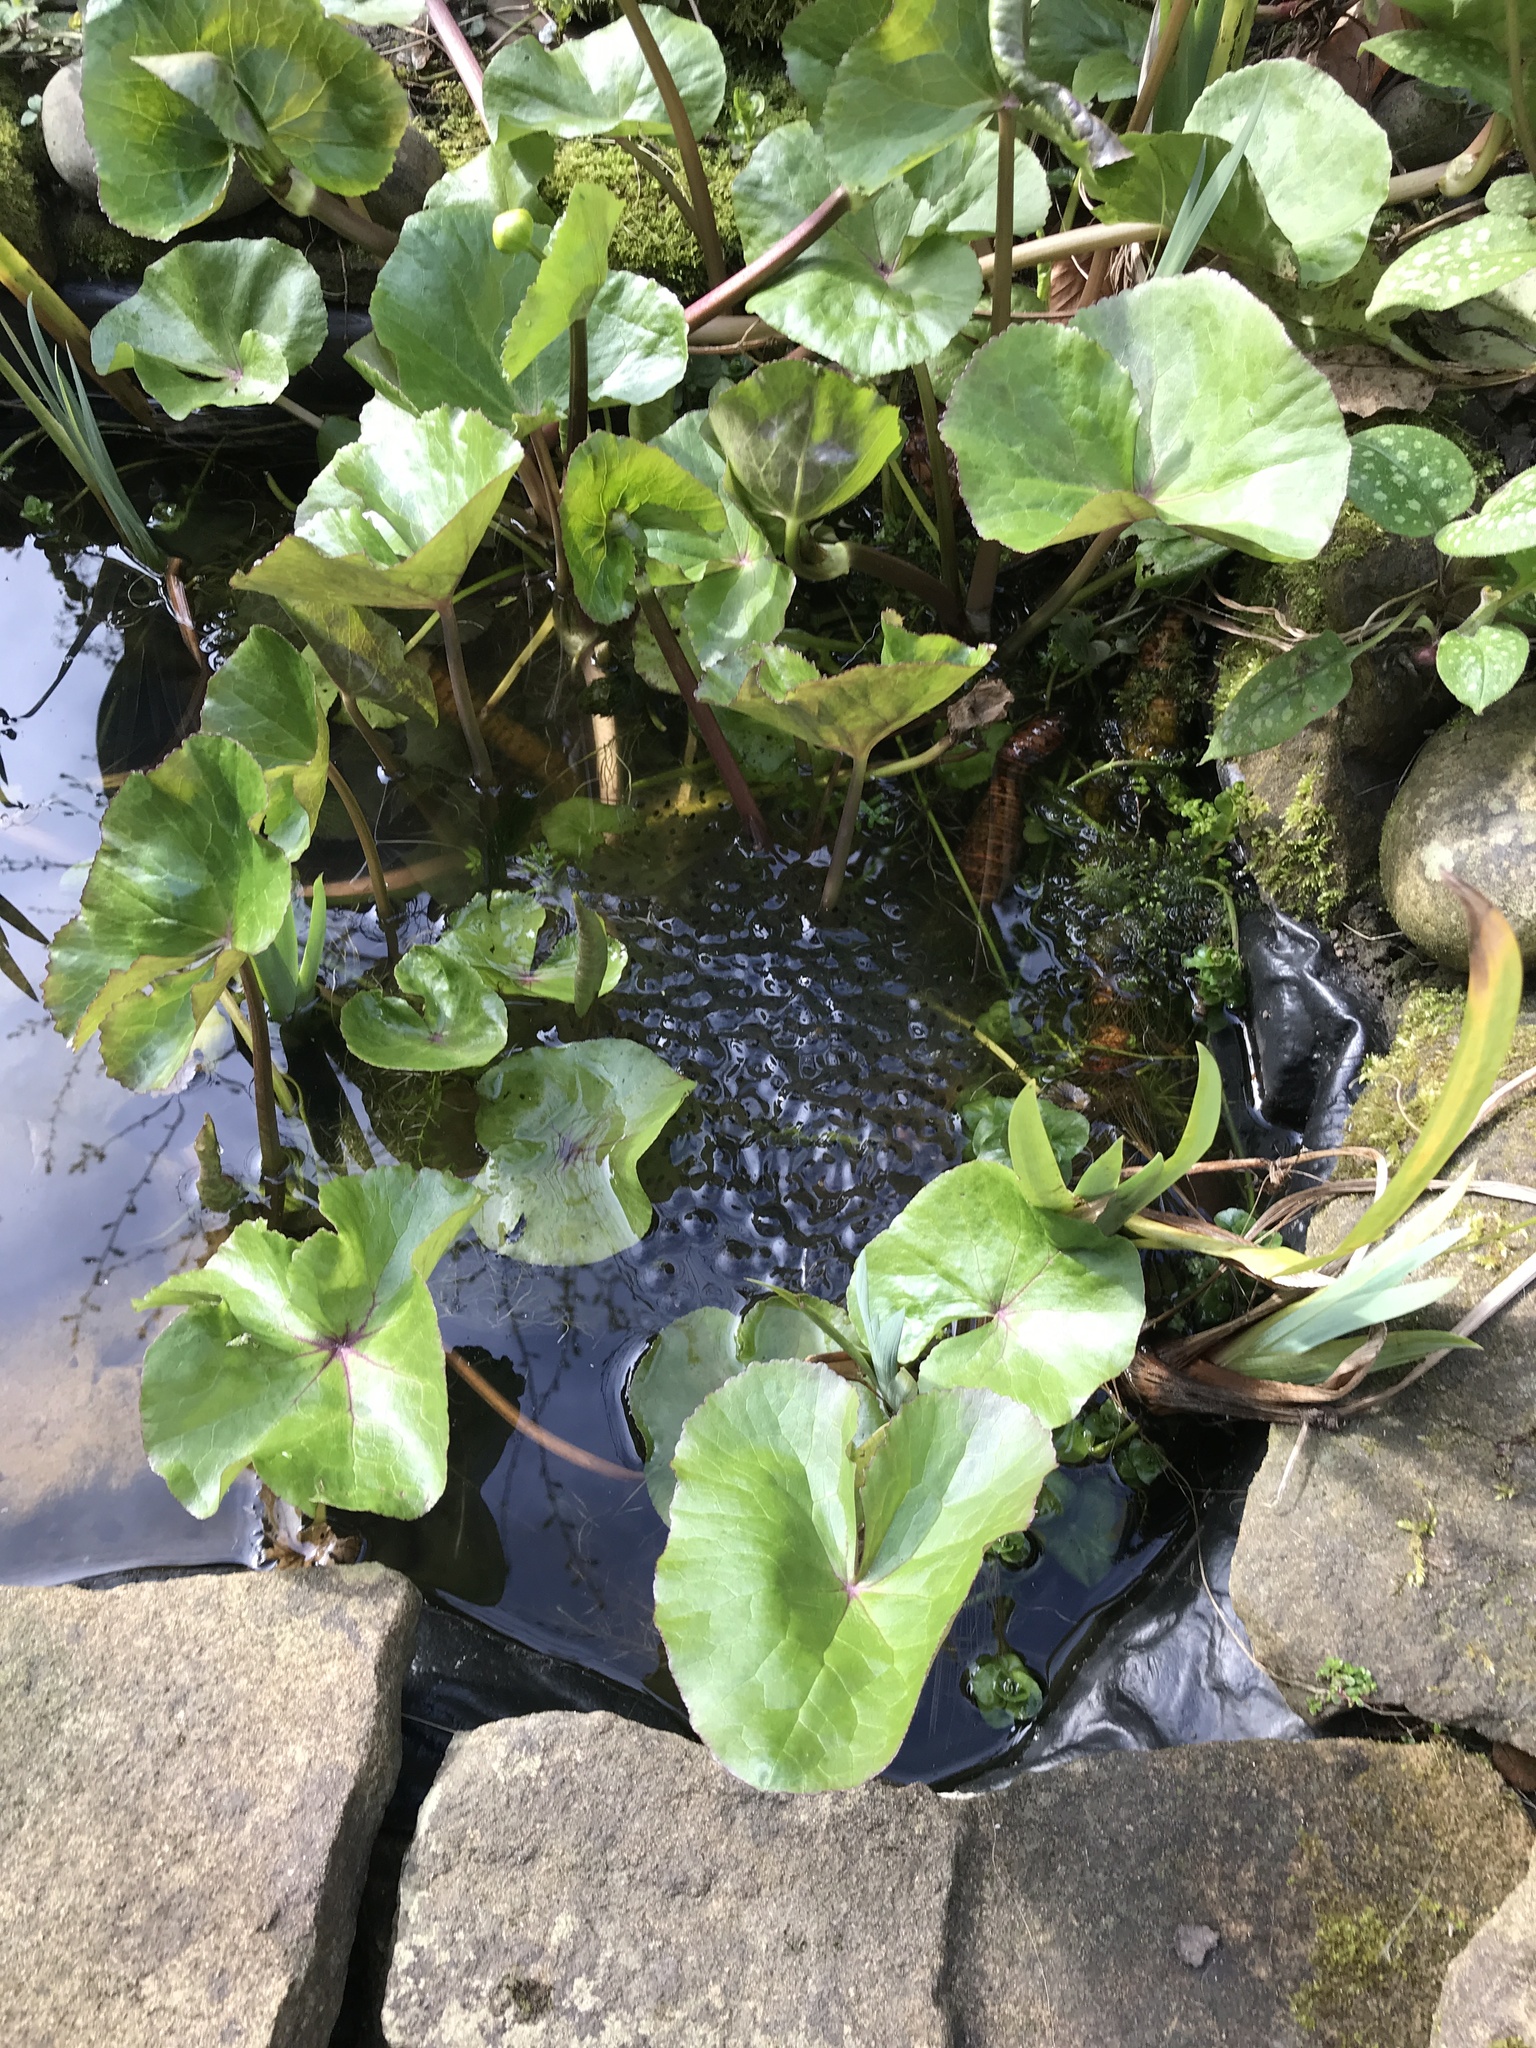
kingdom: Animalia
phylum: Chordata
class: Amphibia
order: Anura
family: Ranidae
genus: Rana
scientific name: Rana temporaria
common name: Common frog
